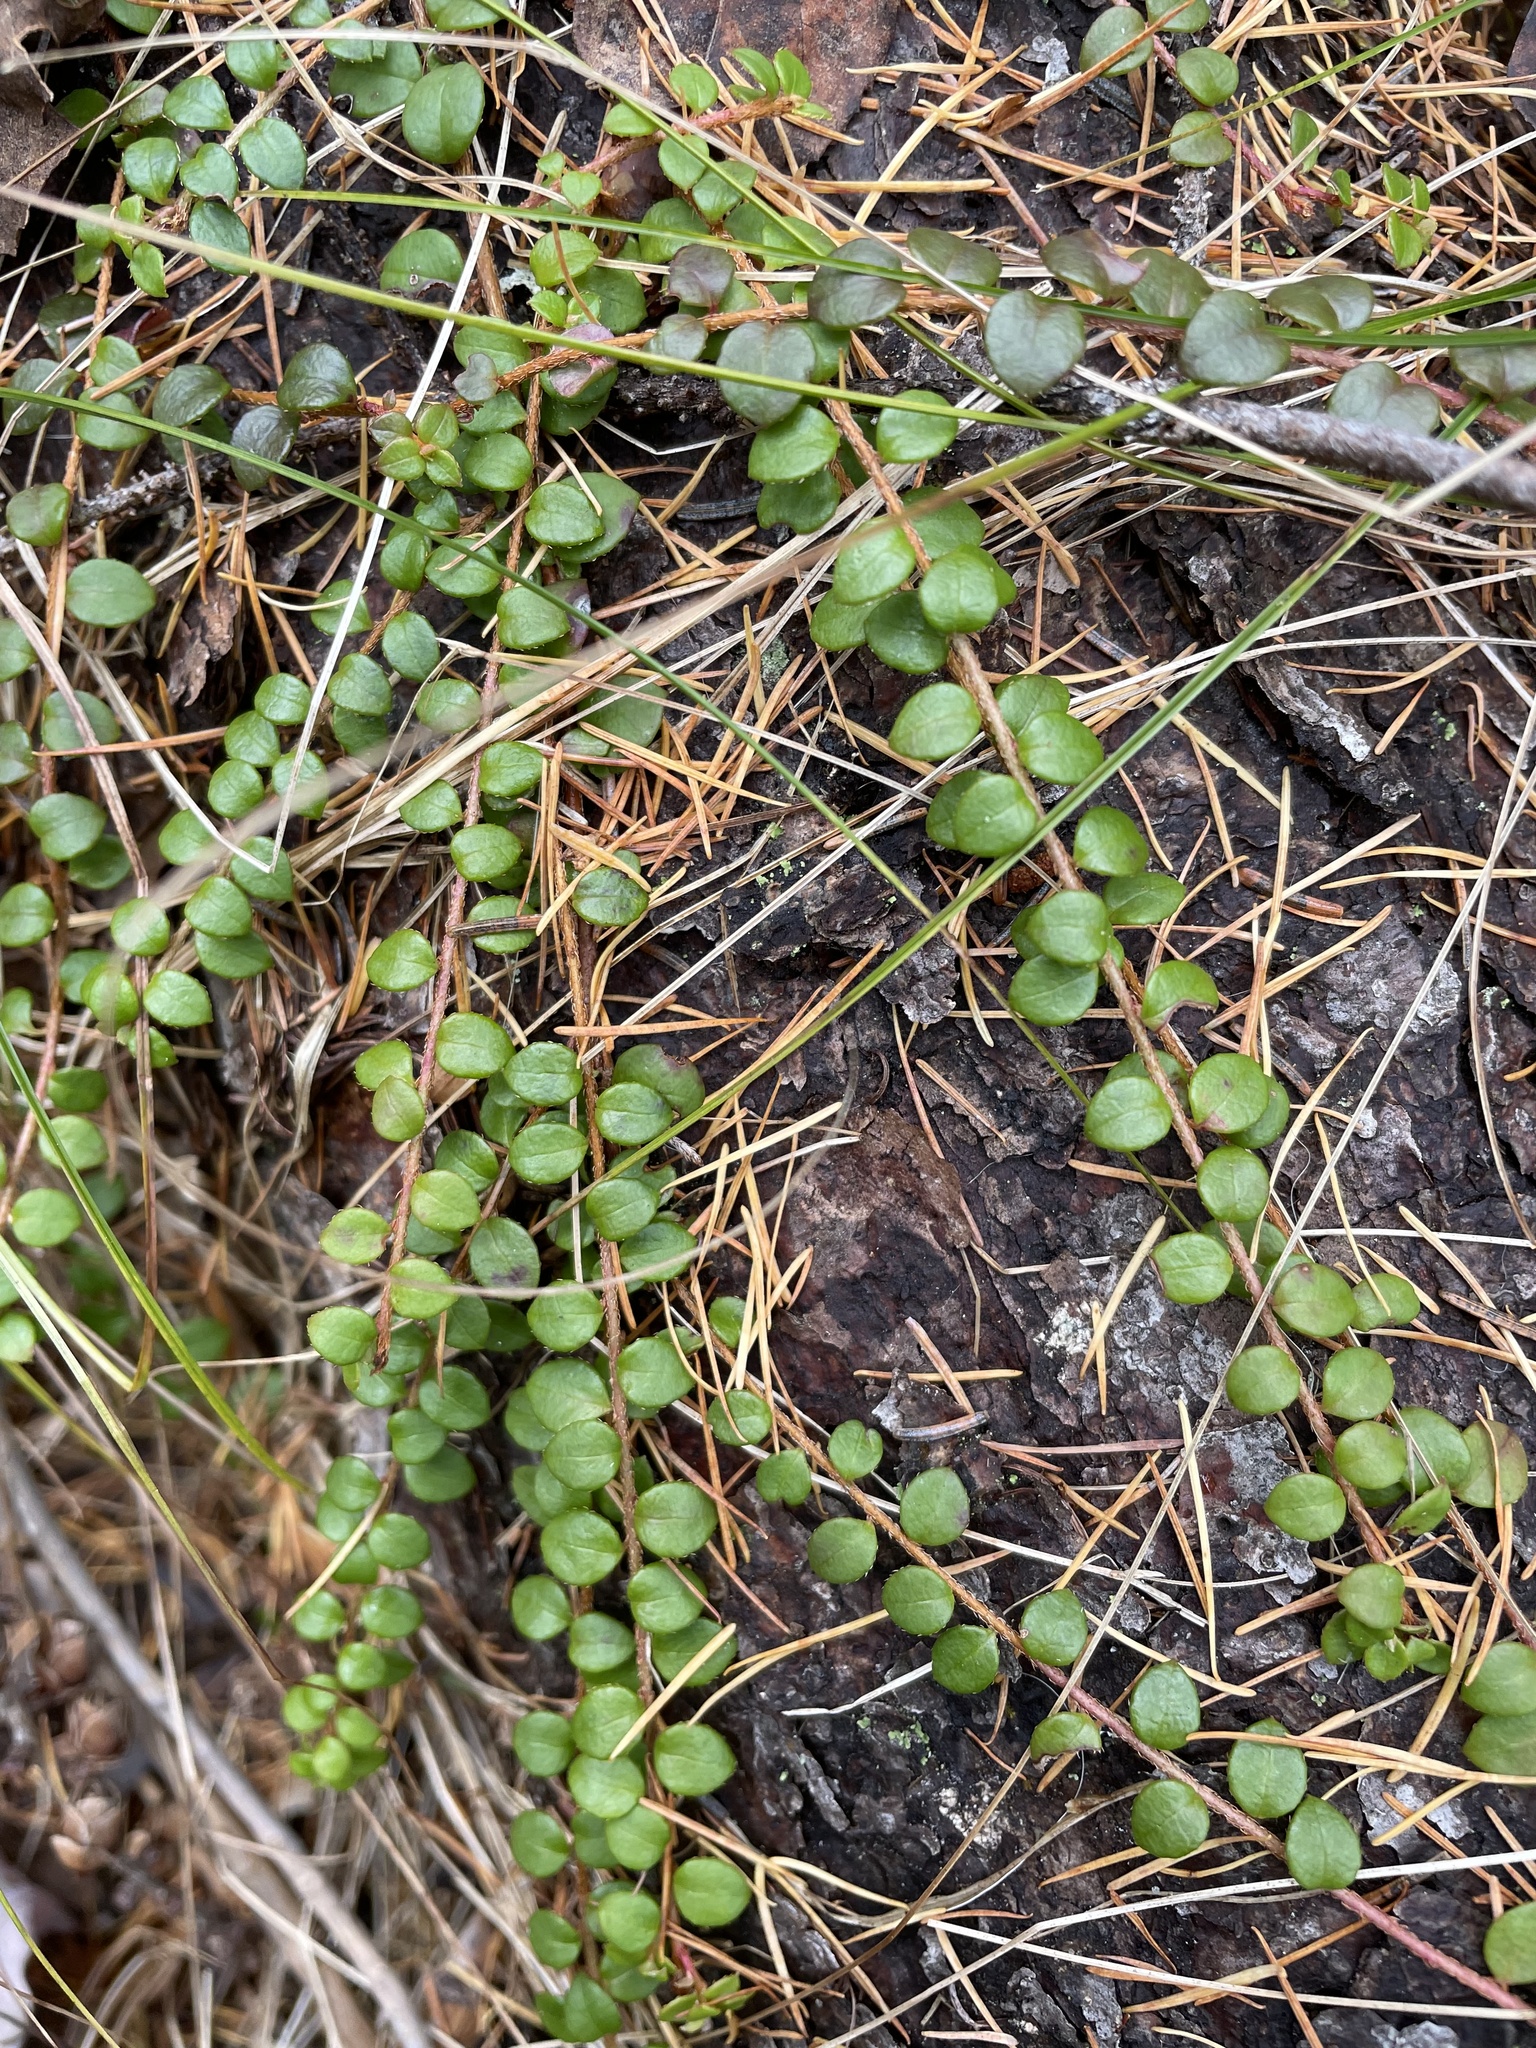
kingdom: Plantae
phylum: Tracheophyta
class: Magnoliopsida
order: Ericales
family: Ericaceae
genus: Gaultheria
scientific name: Gaultheria hispidula
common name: Cancer wintergreen
